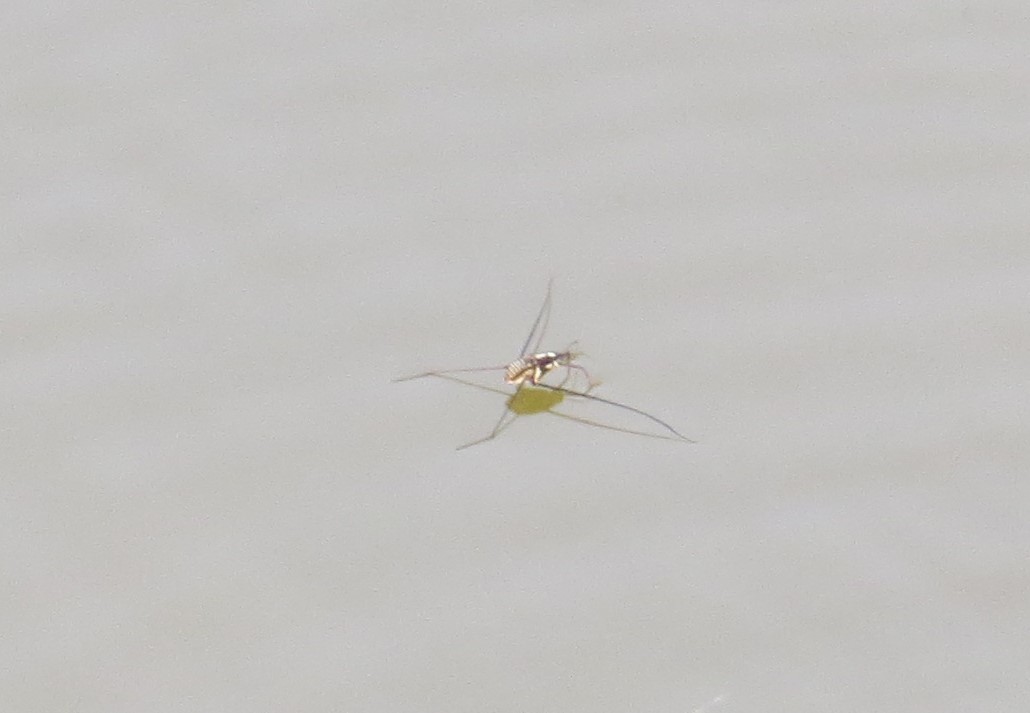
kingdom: Animalia
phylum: Arthropoda
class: Insecta
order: Hemiptera
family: Gerridae
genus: Metrobates
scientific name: Metrobates hesperius
